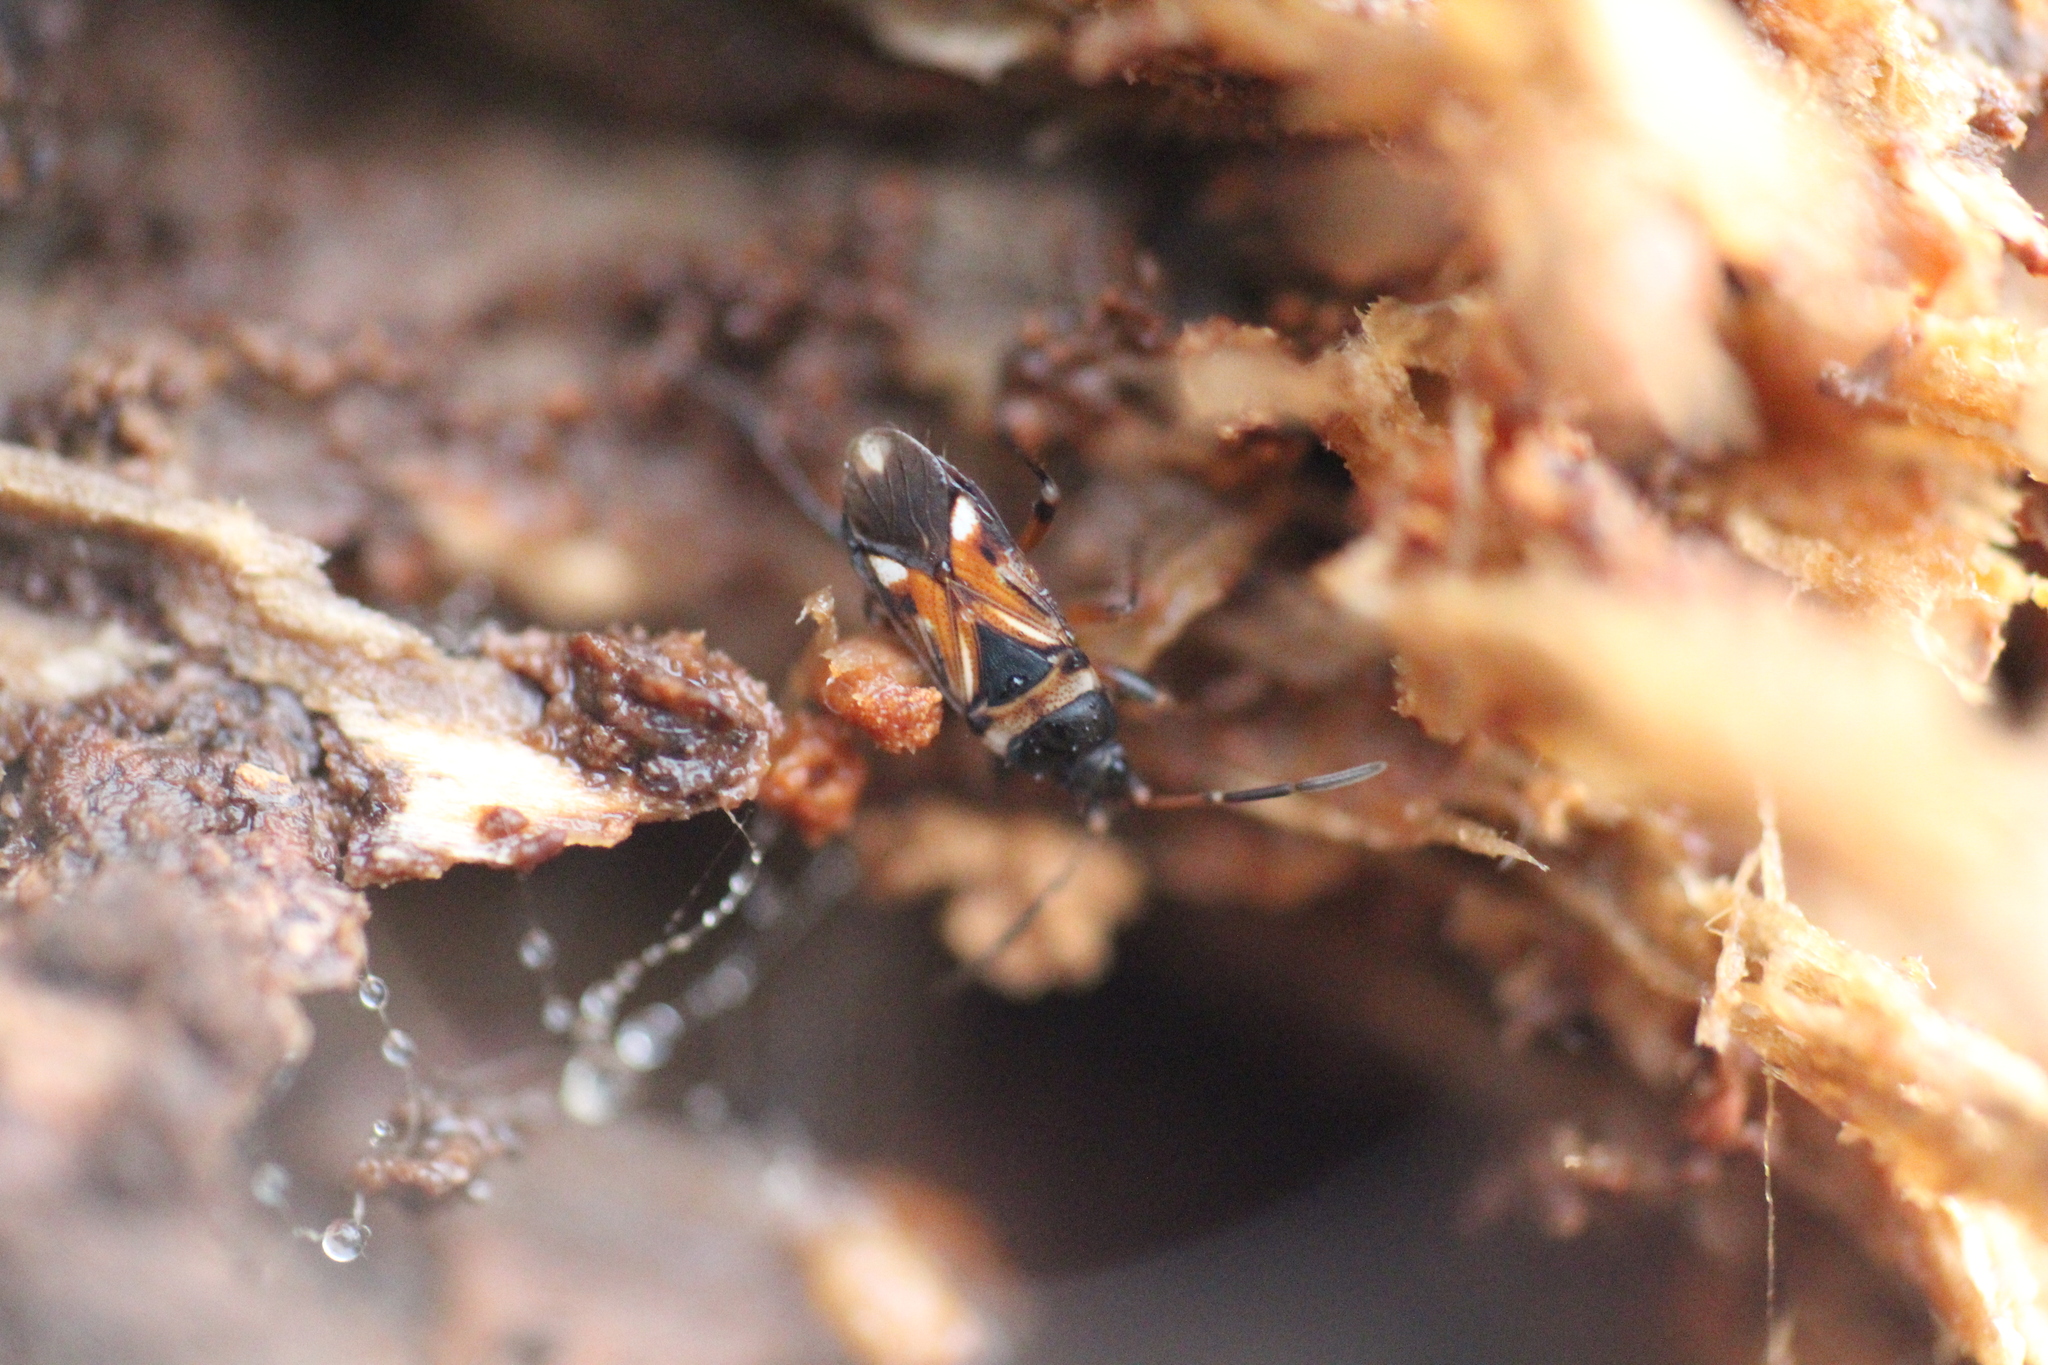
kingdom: Animalia
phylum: Arthropoda
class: Insecta
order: Hemiptera
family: Rhyparochromidae
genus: Raglius
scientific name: Raglius alboacuminatus
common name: Dirt-colored seed bug
